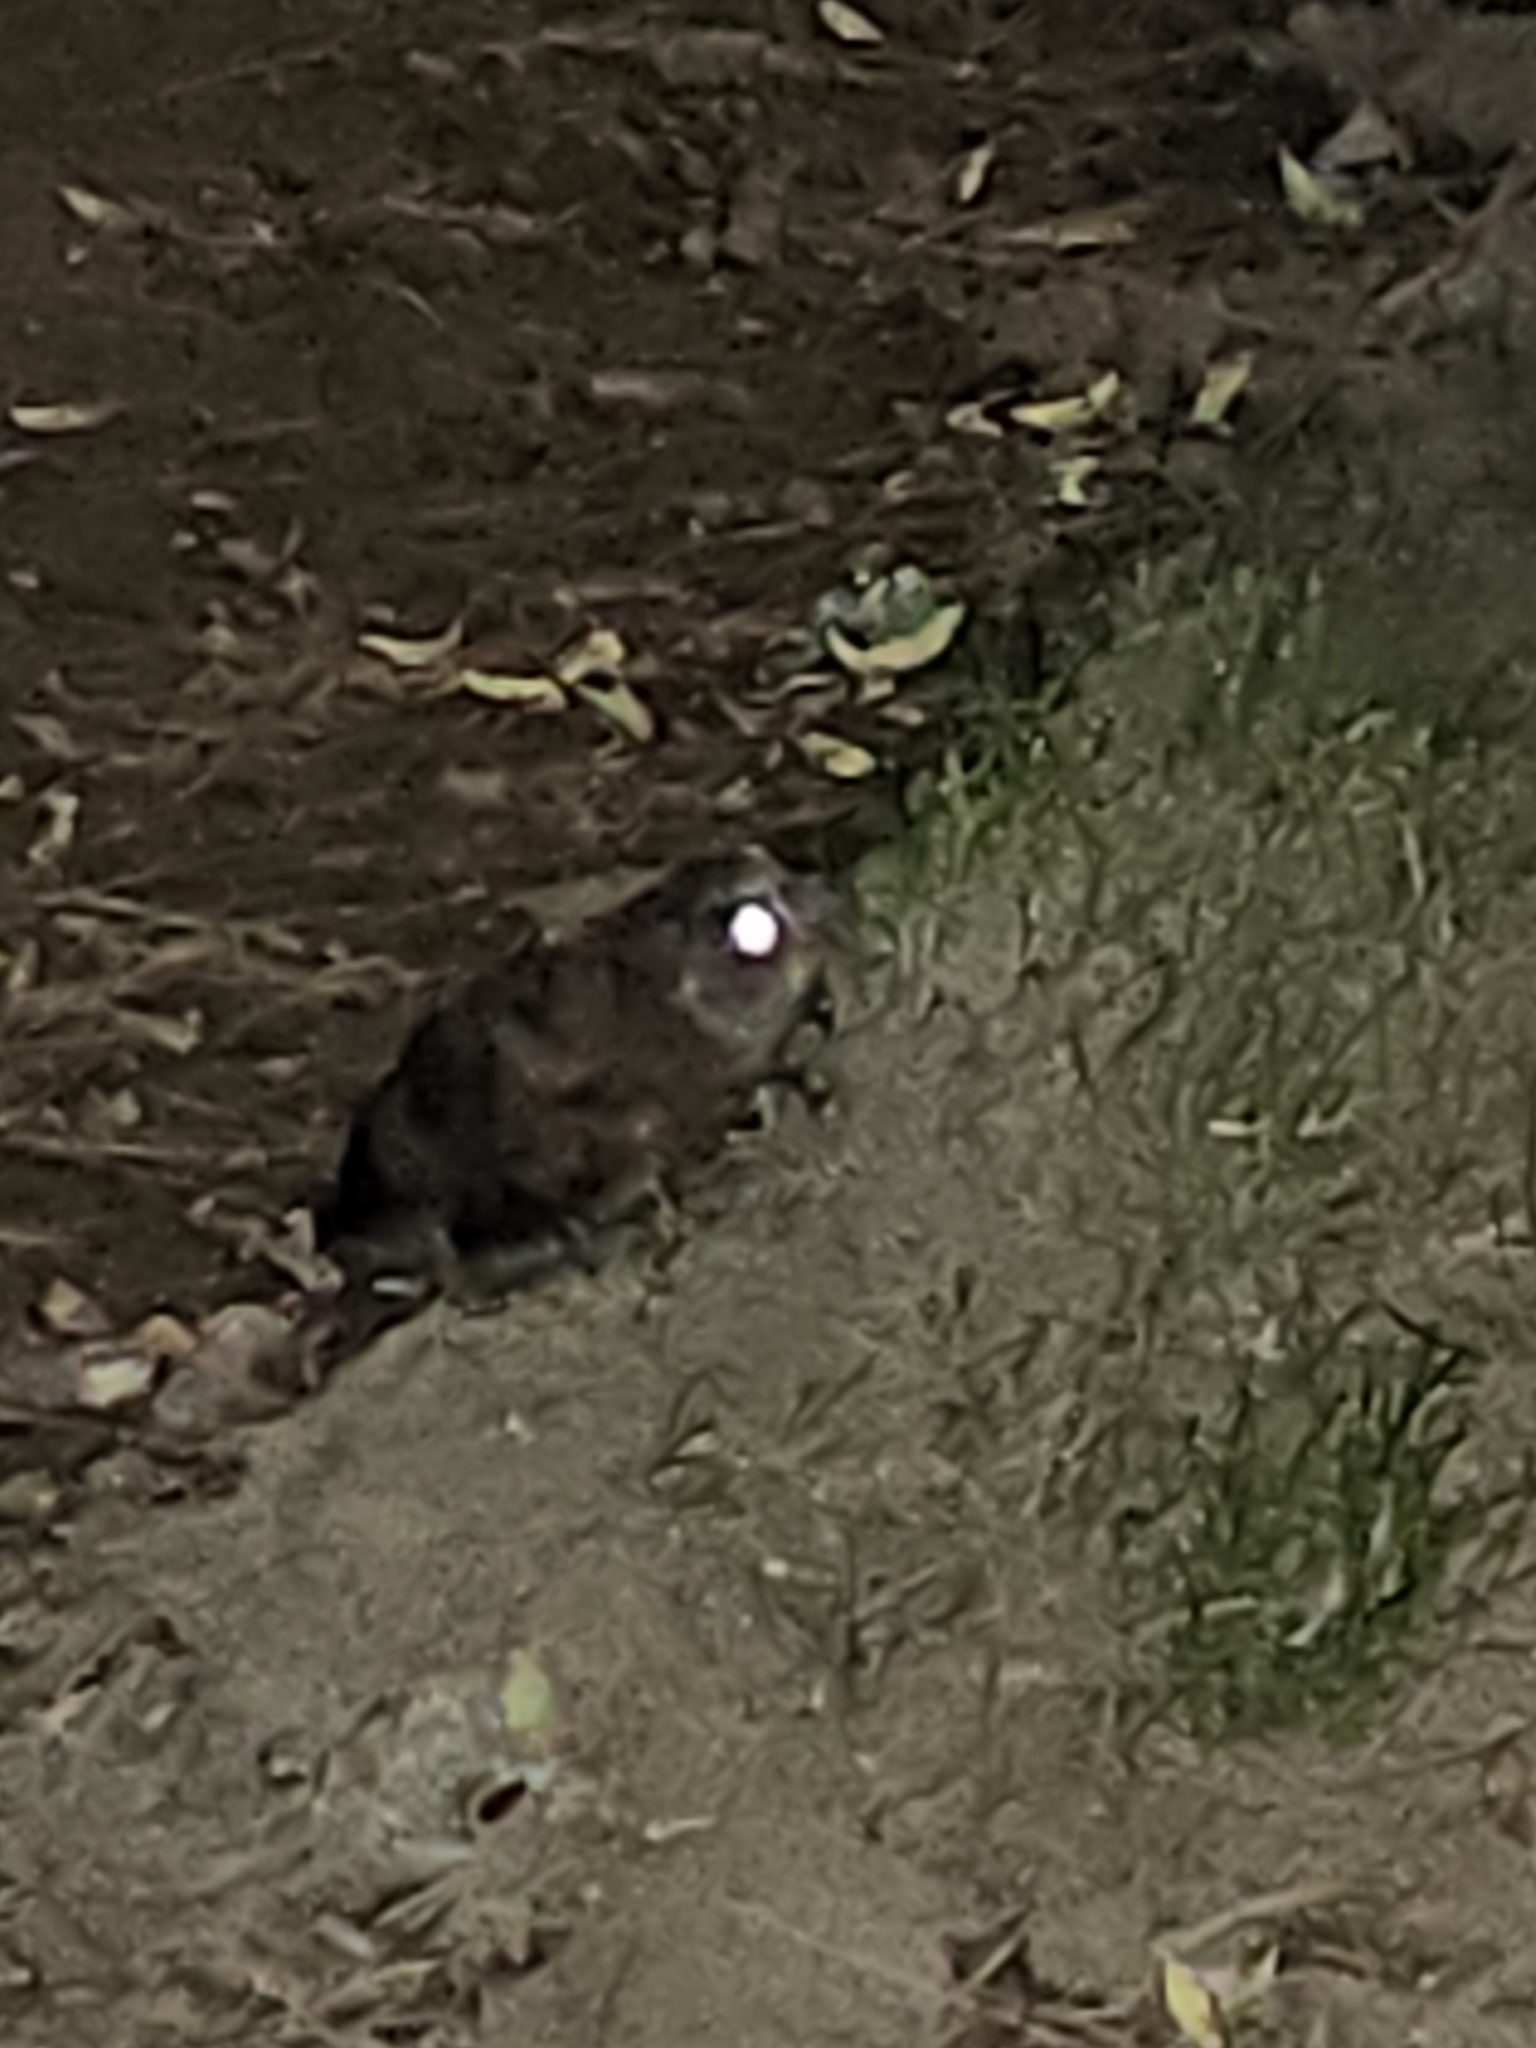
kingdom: Animalia
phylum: Chordata
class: Aves
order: Strigiformes
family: Strigidae
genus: Megascops
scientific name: Megascops asio
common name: Eastern screech-owl
